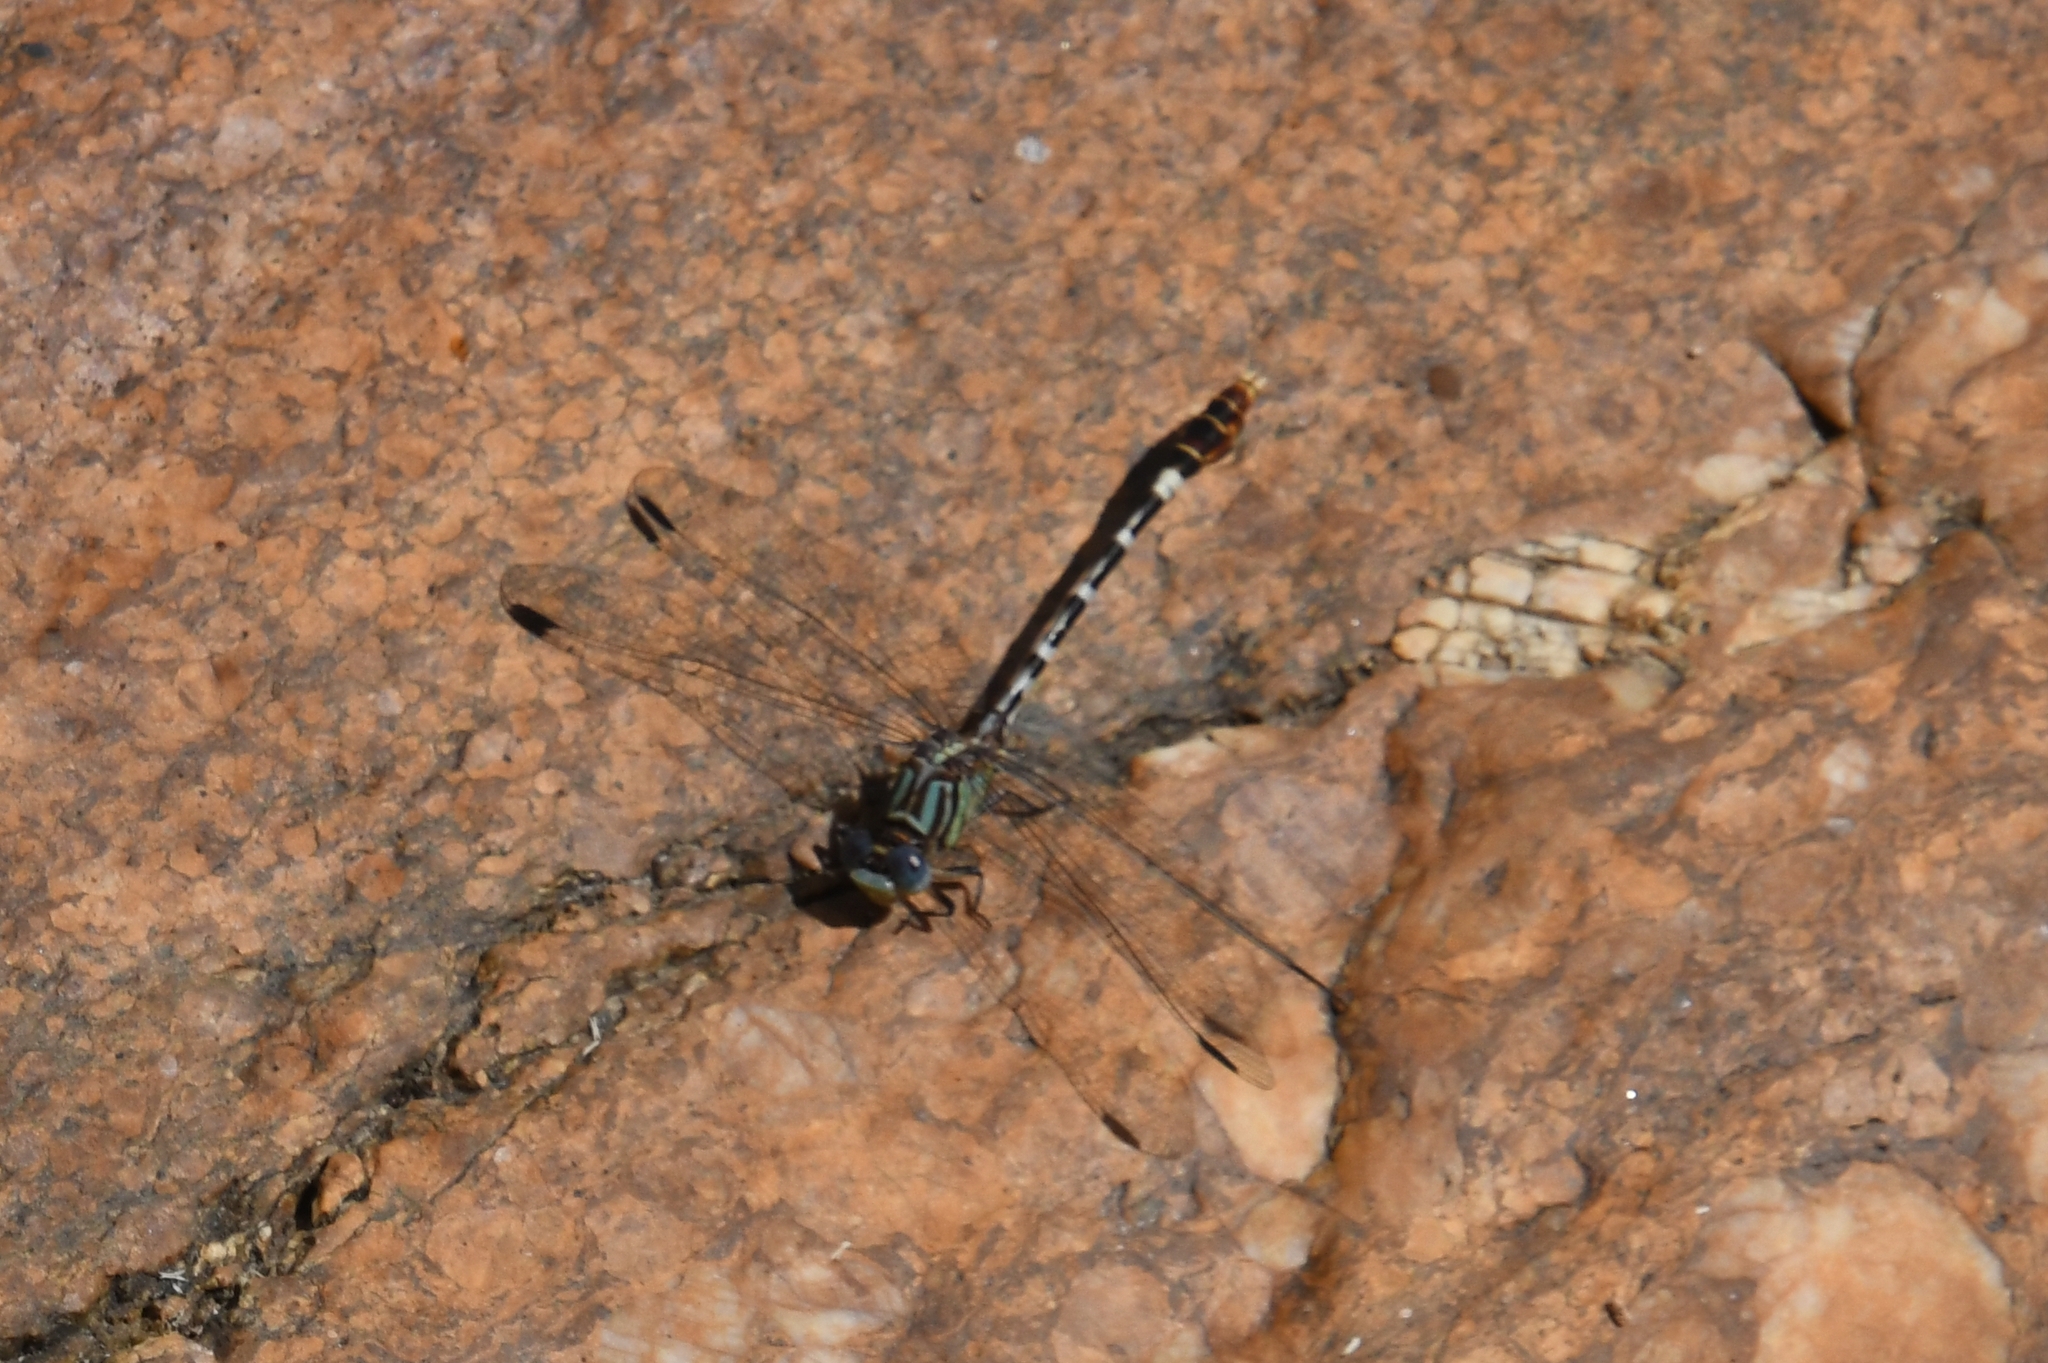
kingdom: Animalia
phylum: Arthropoda
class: Insecta
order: Odonata
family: Gomphidae
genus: Erpetogomphus
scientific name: Erpetogomphus lampropeltis
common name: Serpent ringtail
